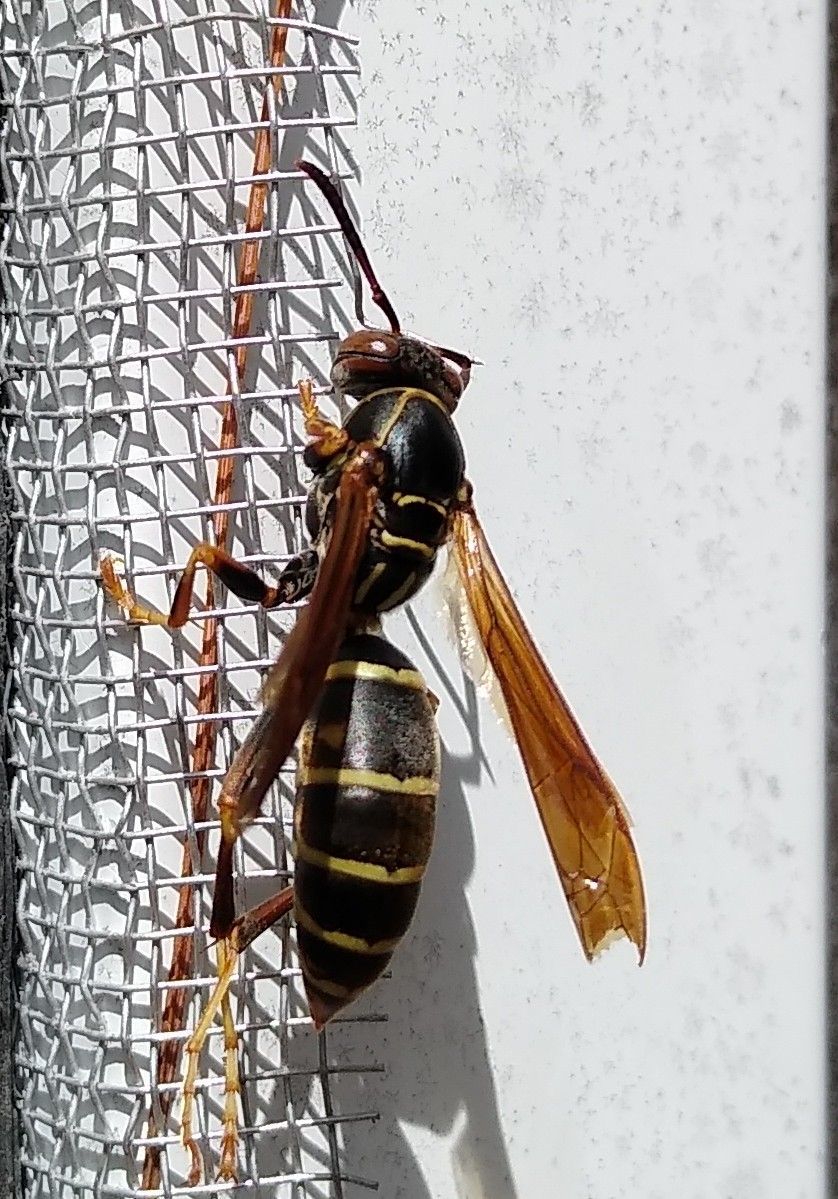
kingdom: Animalia
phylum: Arthropoda
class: Insecta
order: Hymenoptera
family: Eumenidae
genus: Polistes
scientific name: Polistes fuscatus
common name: Dark paper wasp
